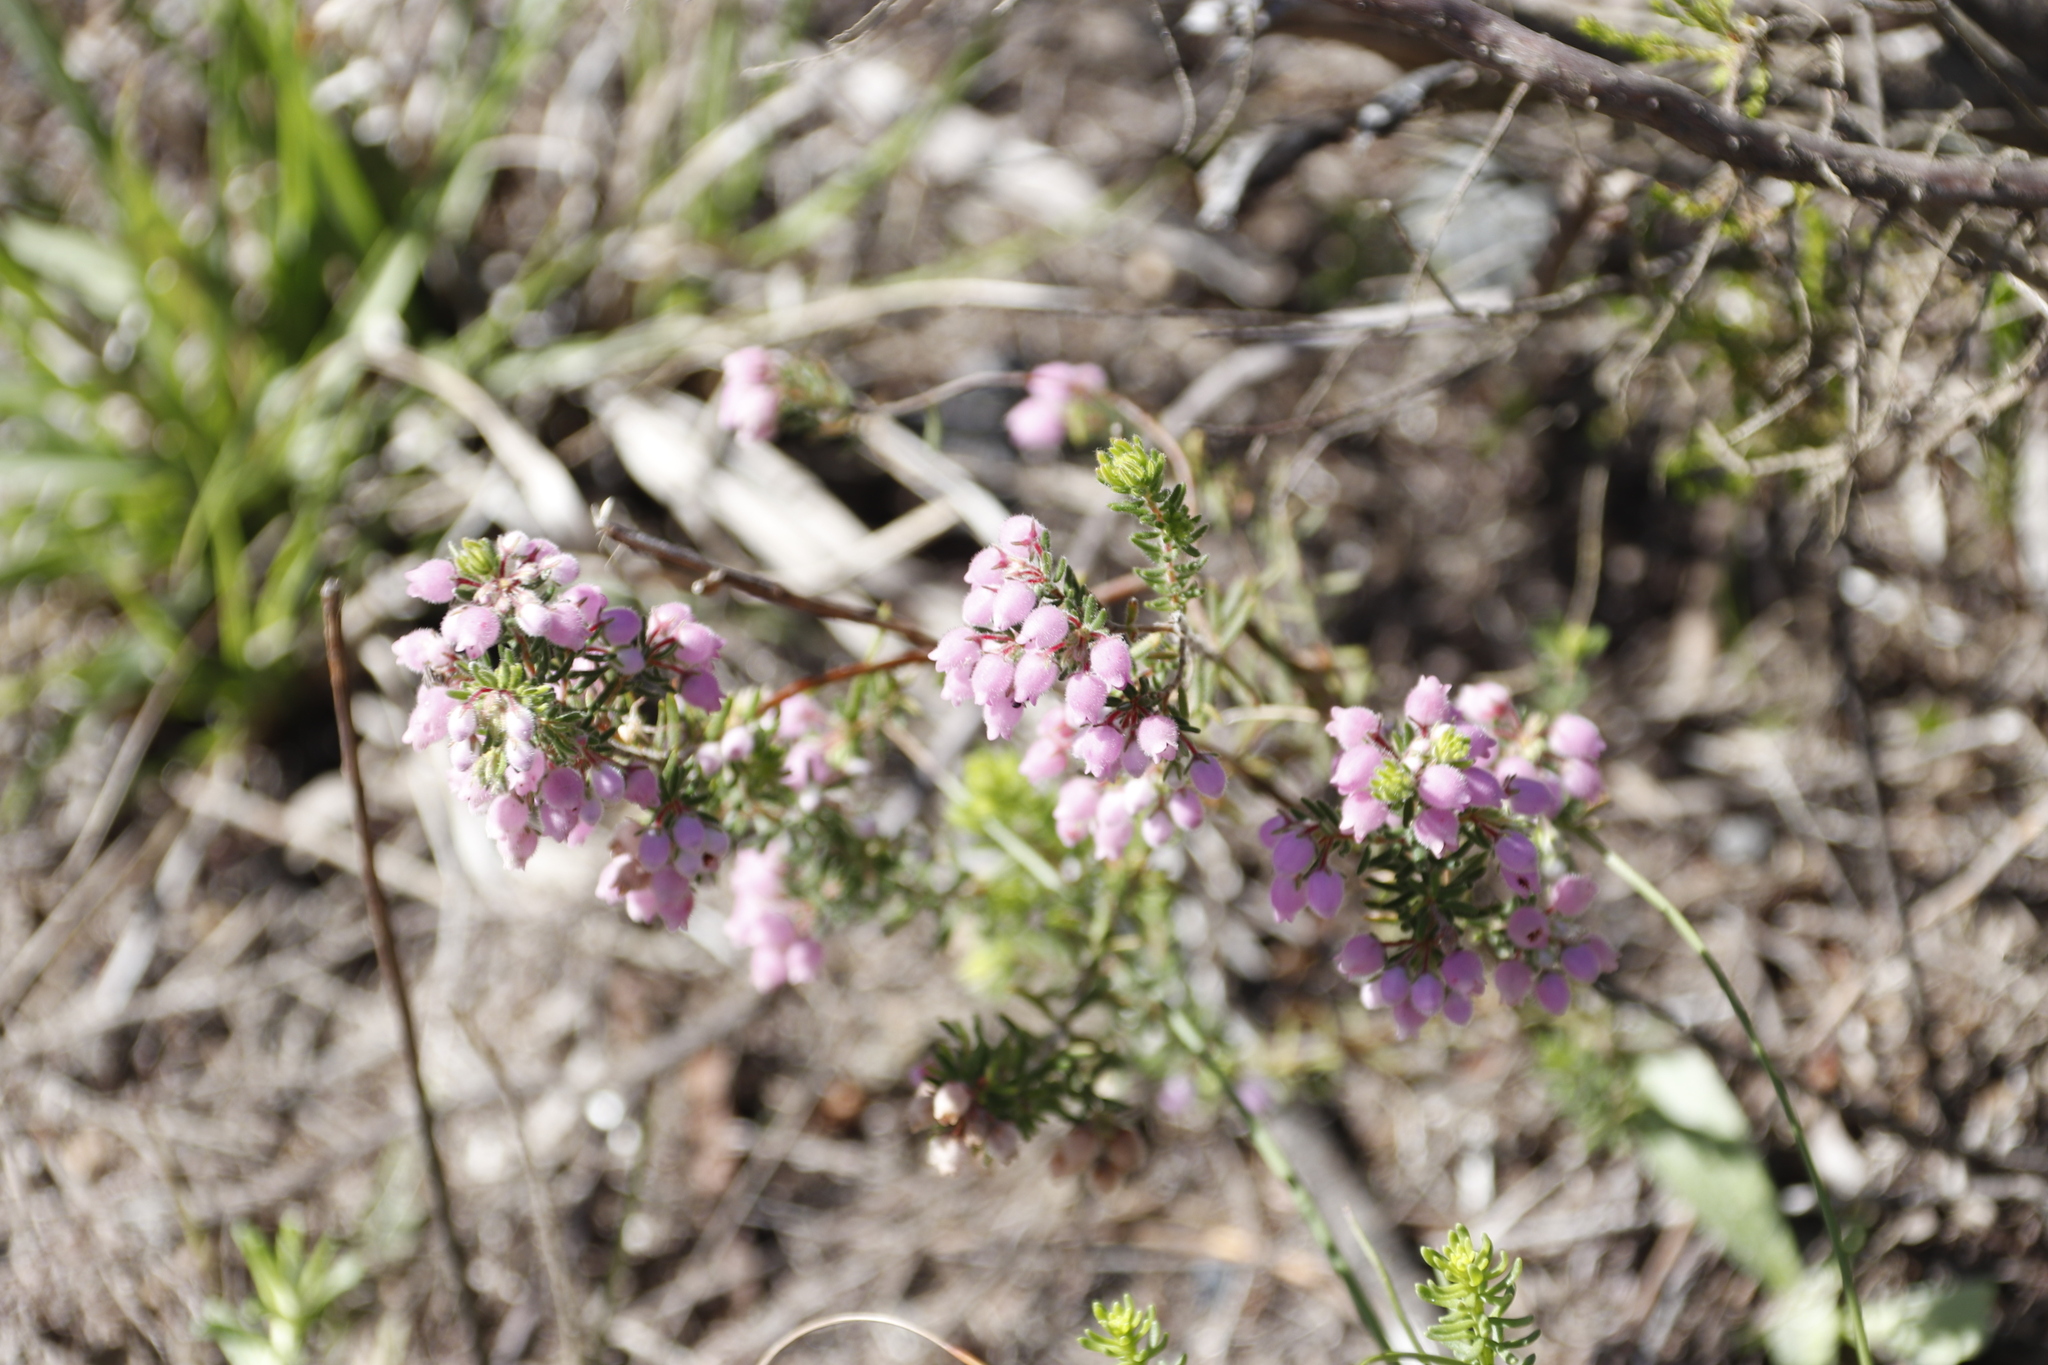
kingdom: Plantae
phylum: Tracheophyta
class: Magnoliopsida
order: Ericales
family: Ericaceae
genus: Erica
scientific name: Erica hirtiflora
